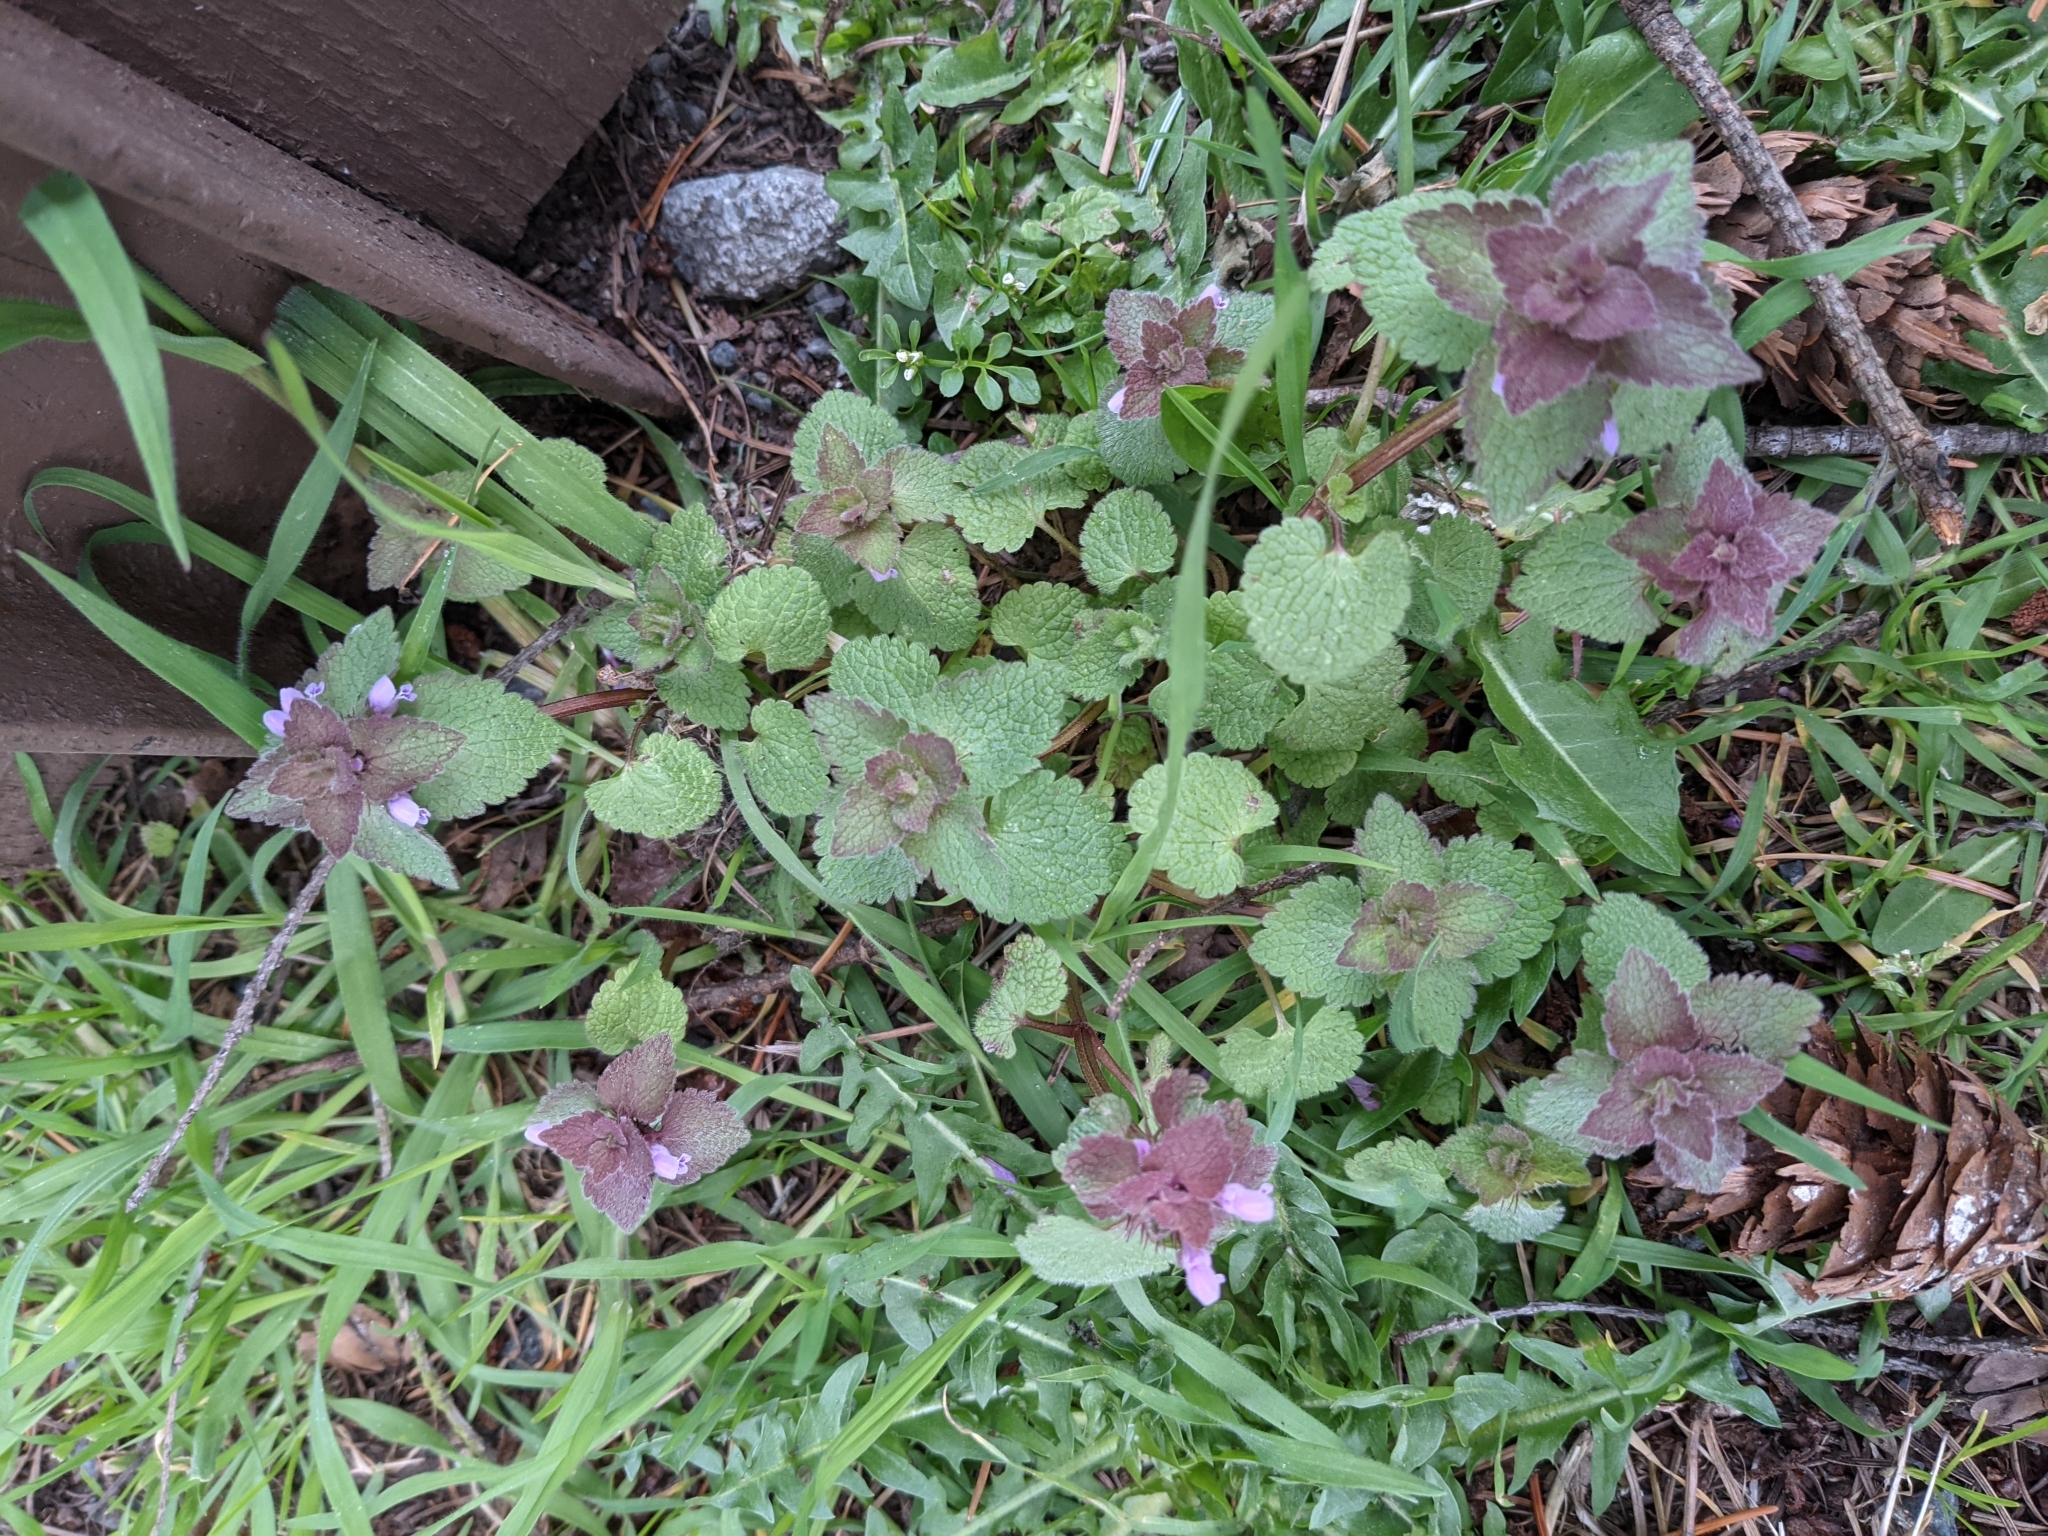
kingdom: Plantae
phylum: Tracheophyta
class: Magnoliopsida
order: Lamiales
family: Lamiaceae
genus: Lamium
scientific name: Lamium purpureum
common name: Red dead-nettle
